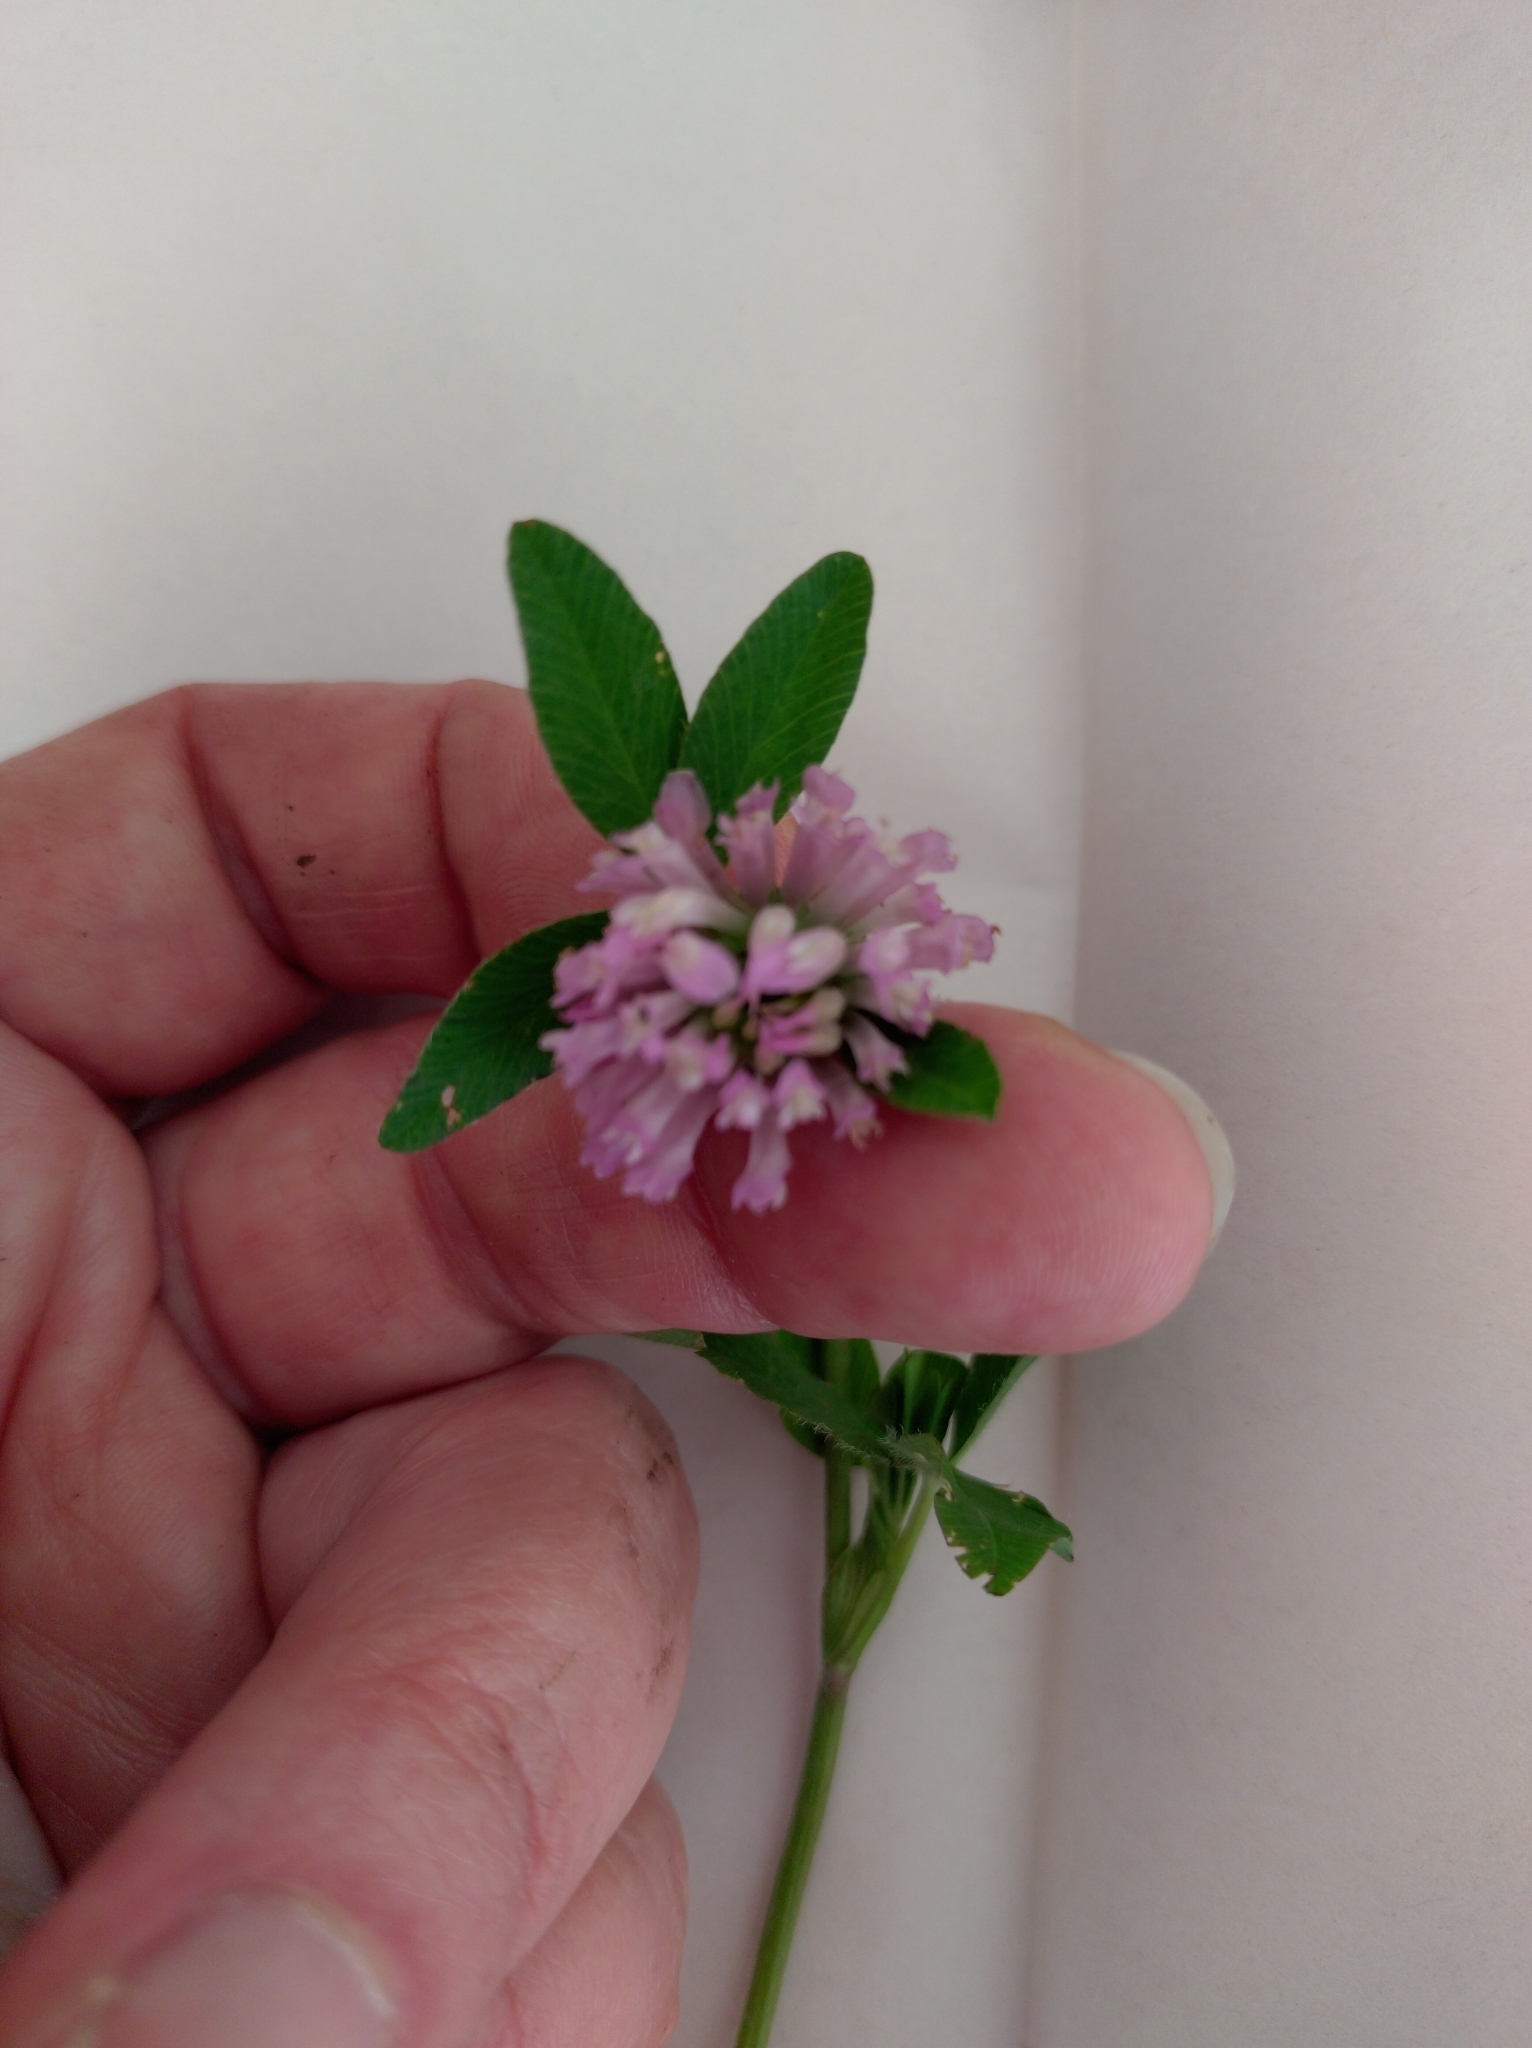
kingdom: Plantae
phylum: Tracheophyta
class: Magnoliopsida
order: Fabales
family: Fabaceae
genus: Trifolium
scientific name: Trifolium pratense
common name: Red clover
